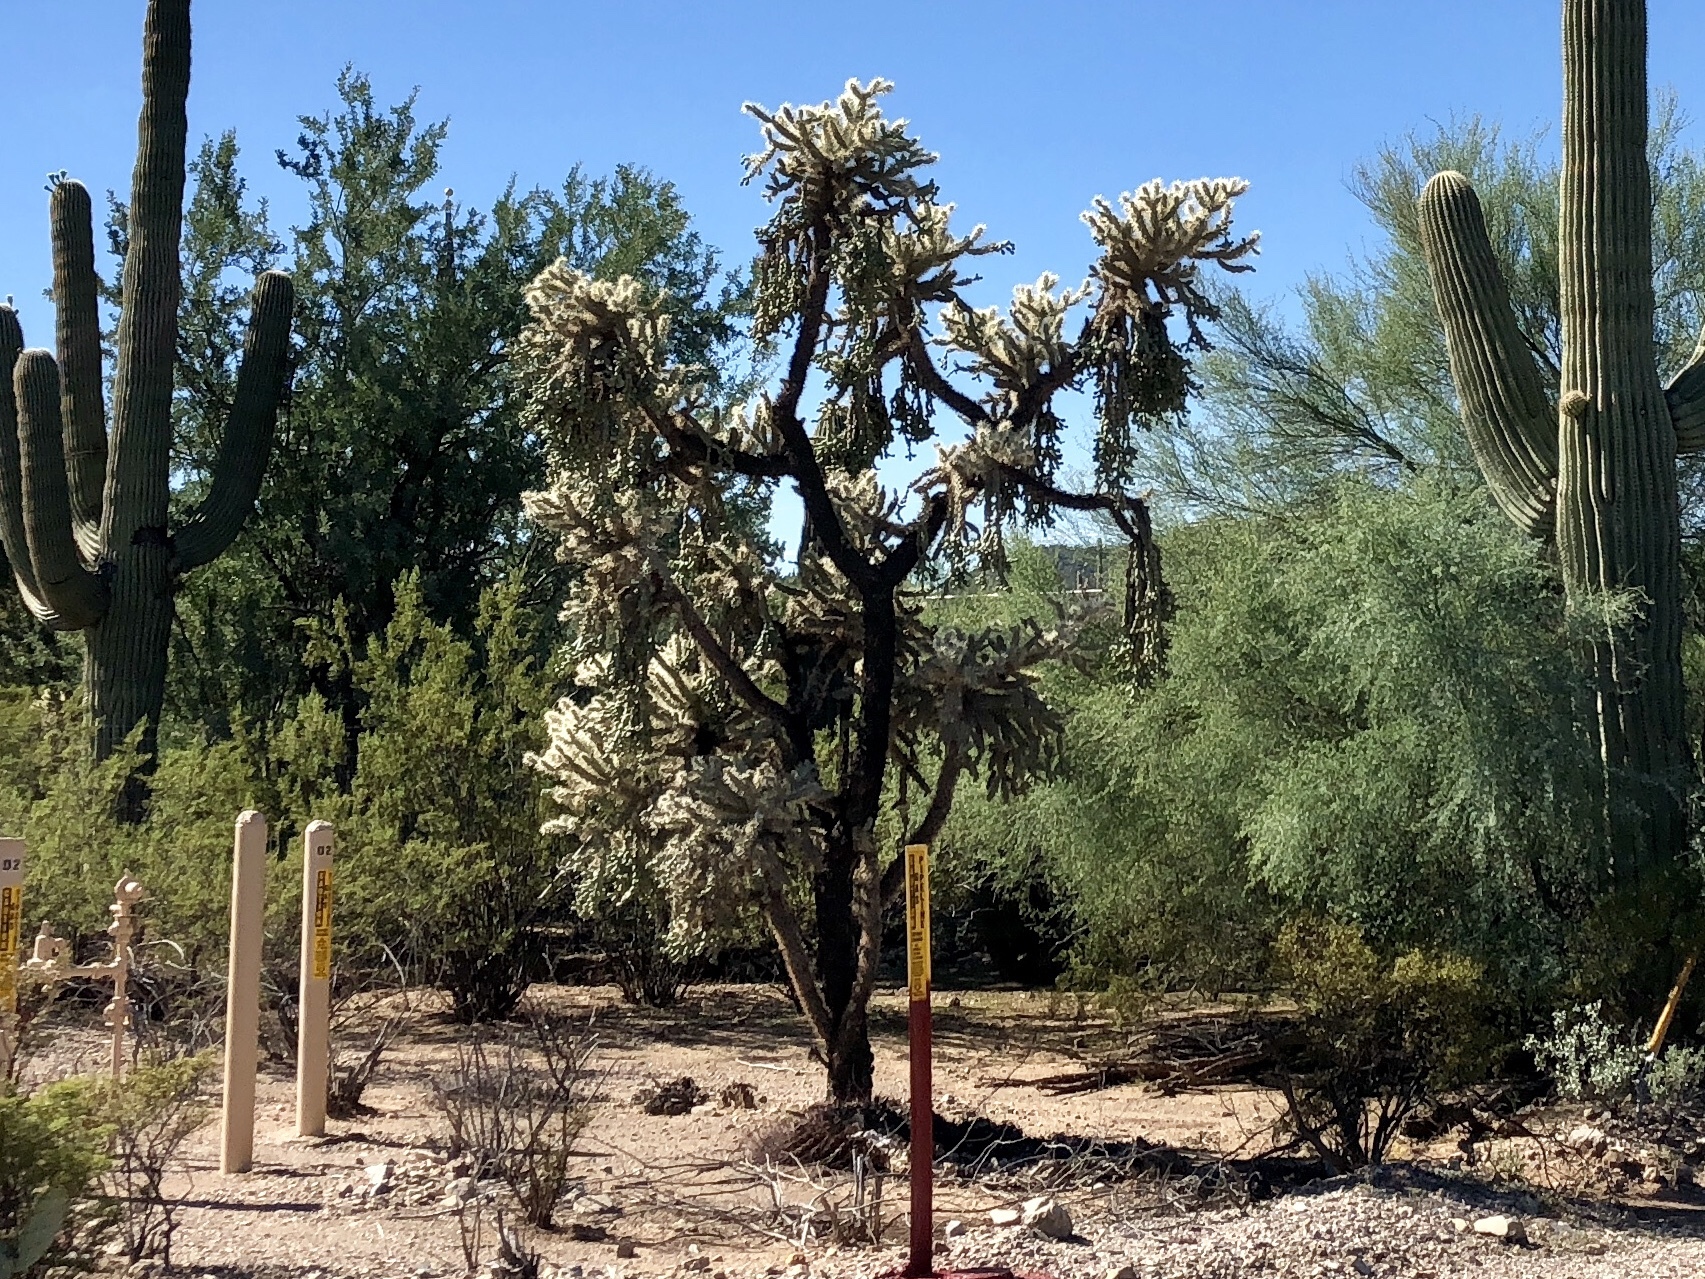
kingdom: Plantae
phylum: Tracheophyta
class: Magnoliopsida
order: Caryophyllales
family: Cactaceae
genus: Cylindropuntia
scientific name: Cylindropuntia fulgida
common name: Jumping cholla
